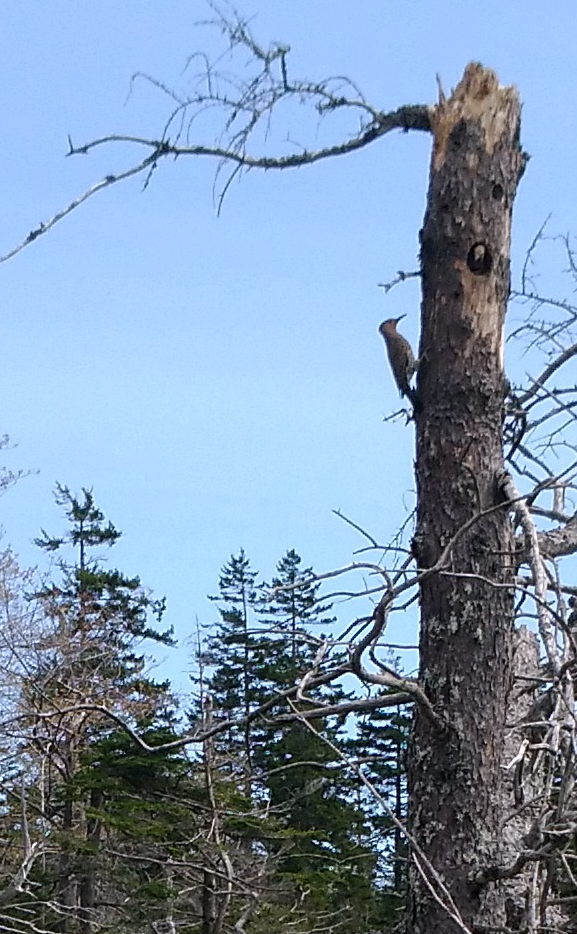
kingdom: Animalia
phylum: Chordata
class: Aves
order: Piciformes
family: Picidae
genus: Colaptes
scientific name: Colaptes auratus
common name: Northern flicker
